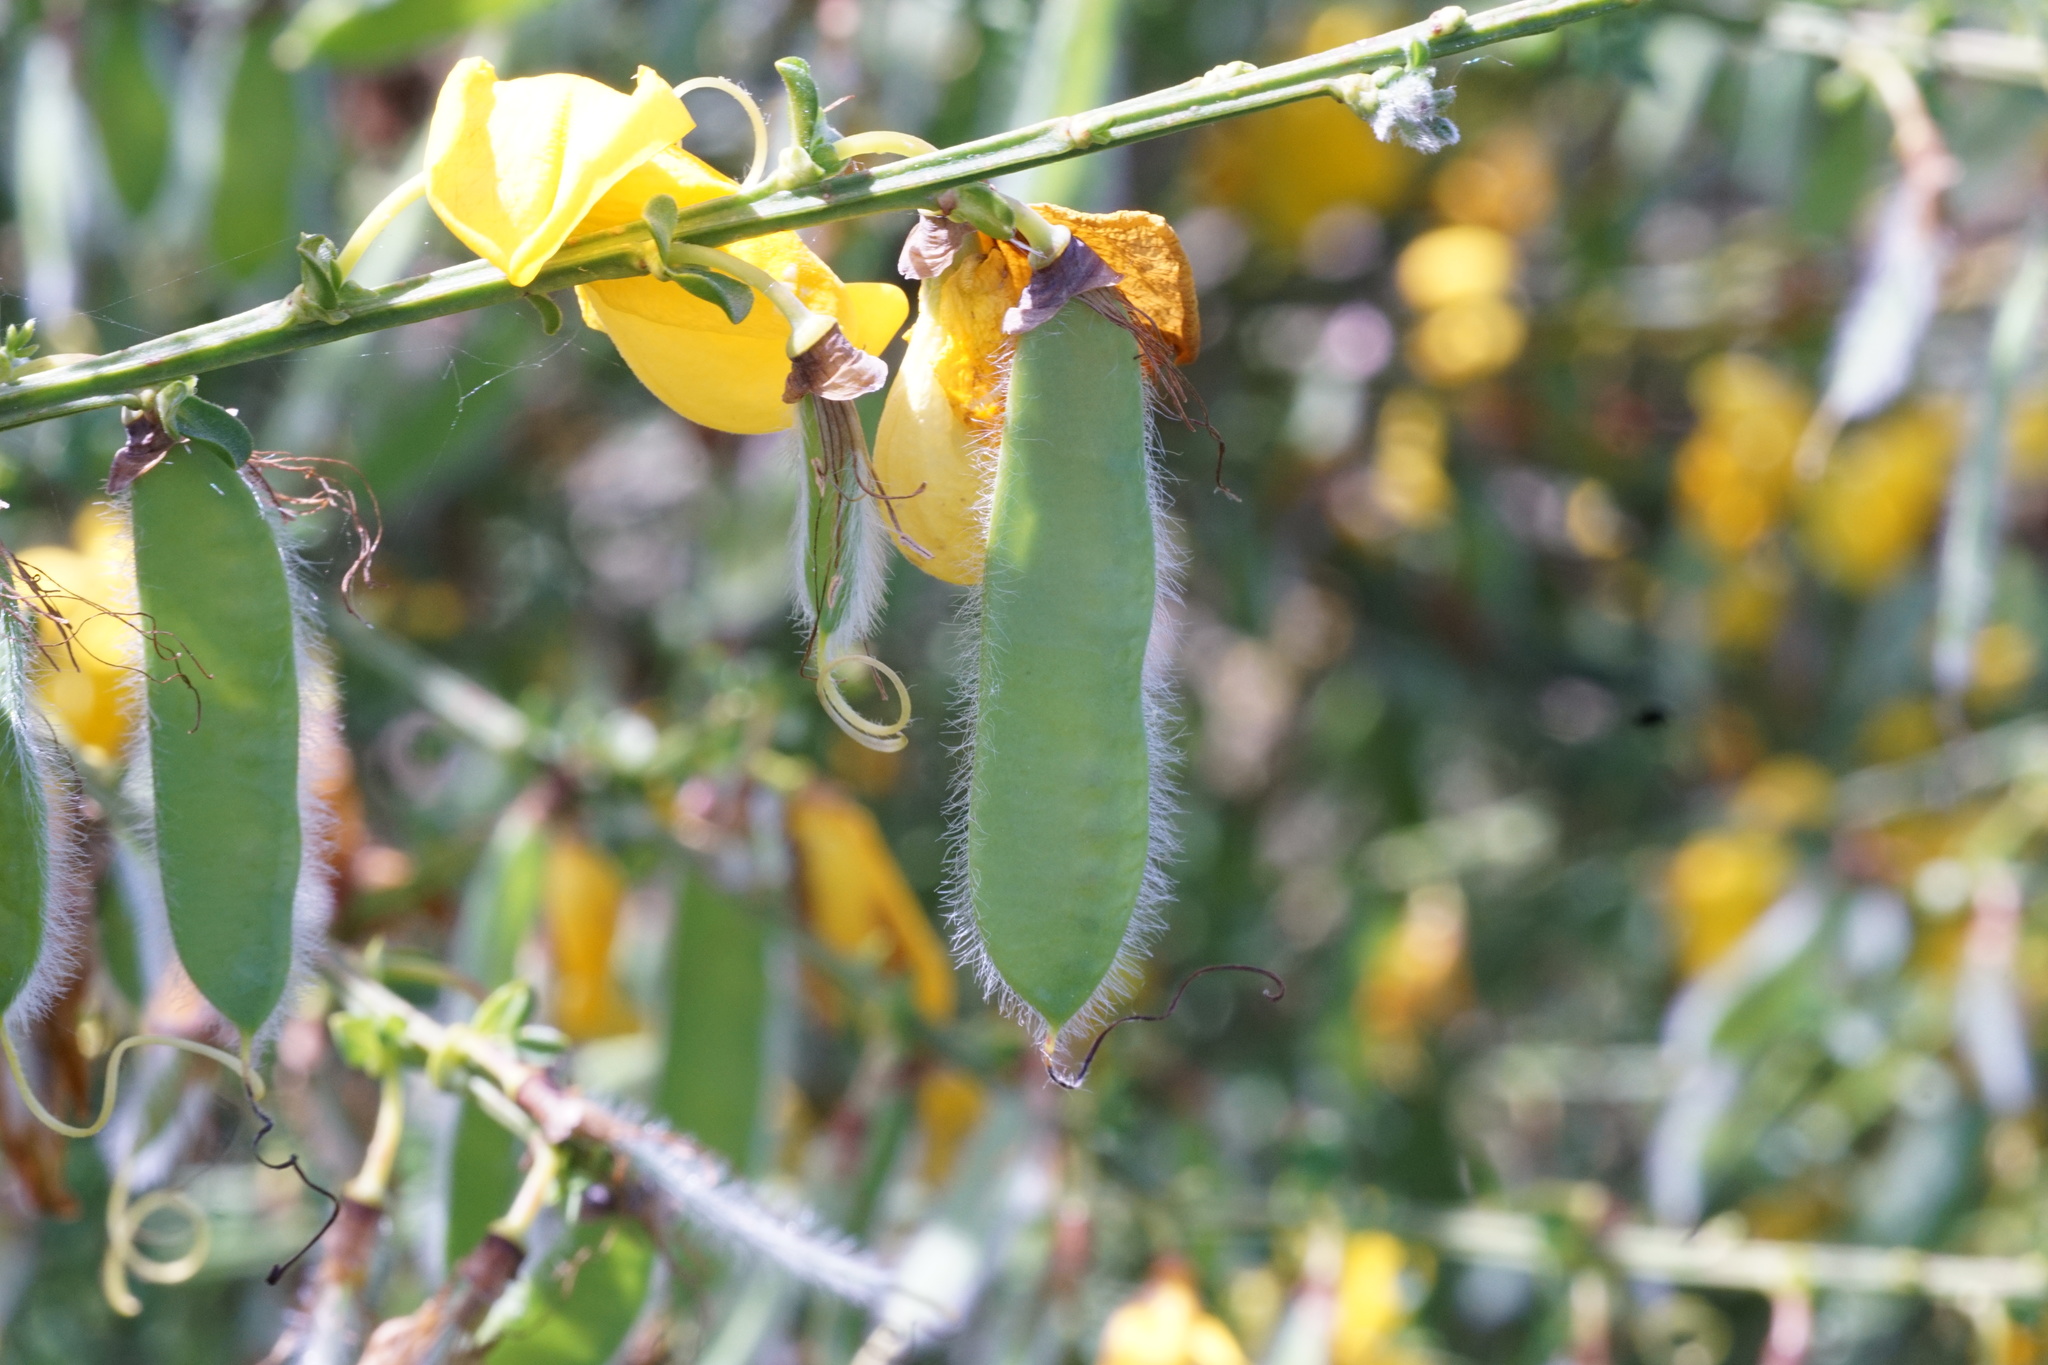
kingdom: Plantae
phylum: Tracheophyta
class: Magnoliopsida
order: Fabales
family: Fabaceae
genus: Cytisus
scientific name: Cytisus scoparius
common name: Scotch broom
